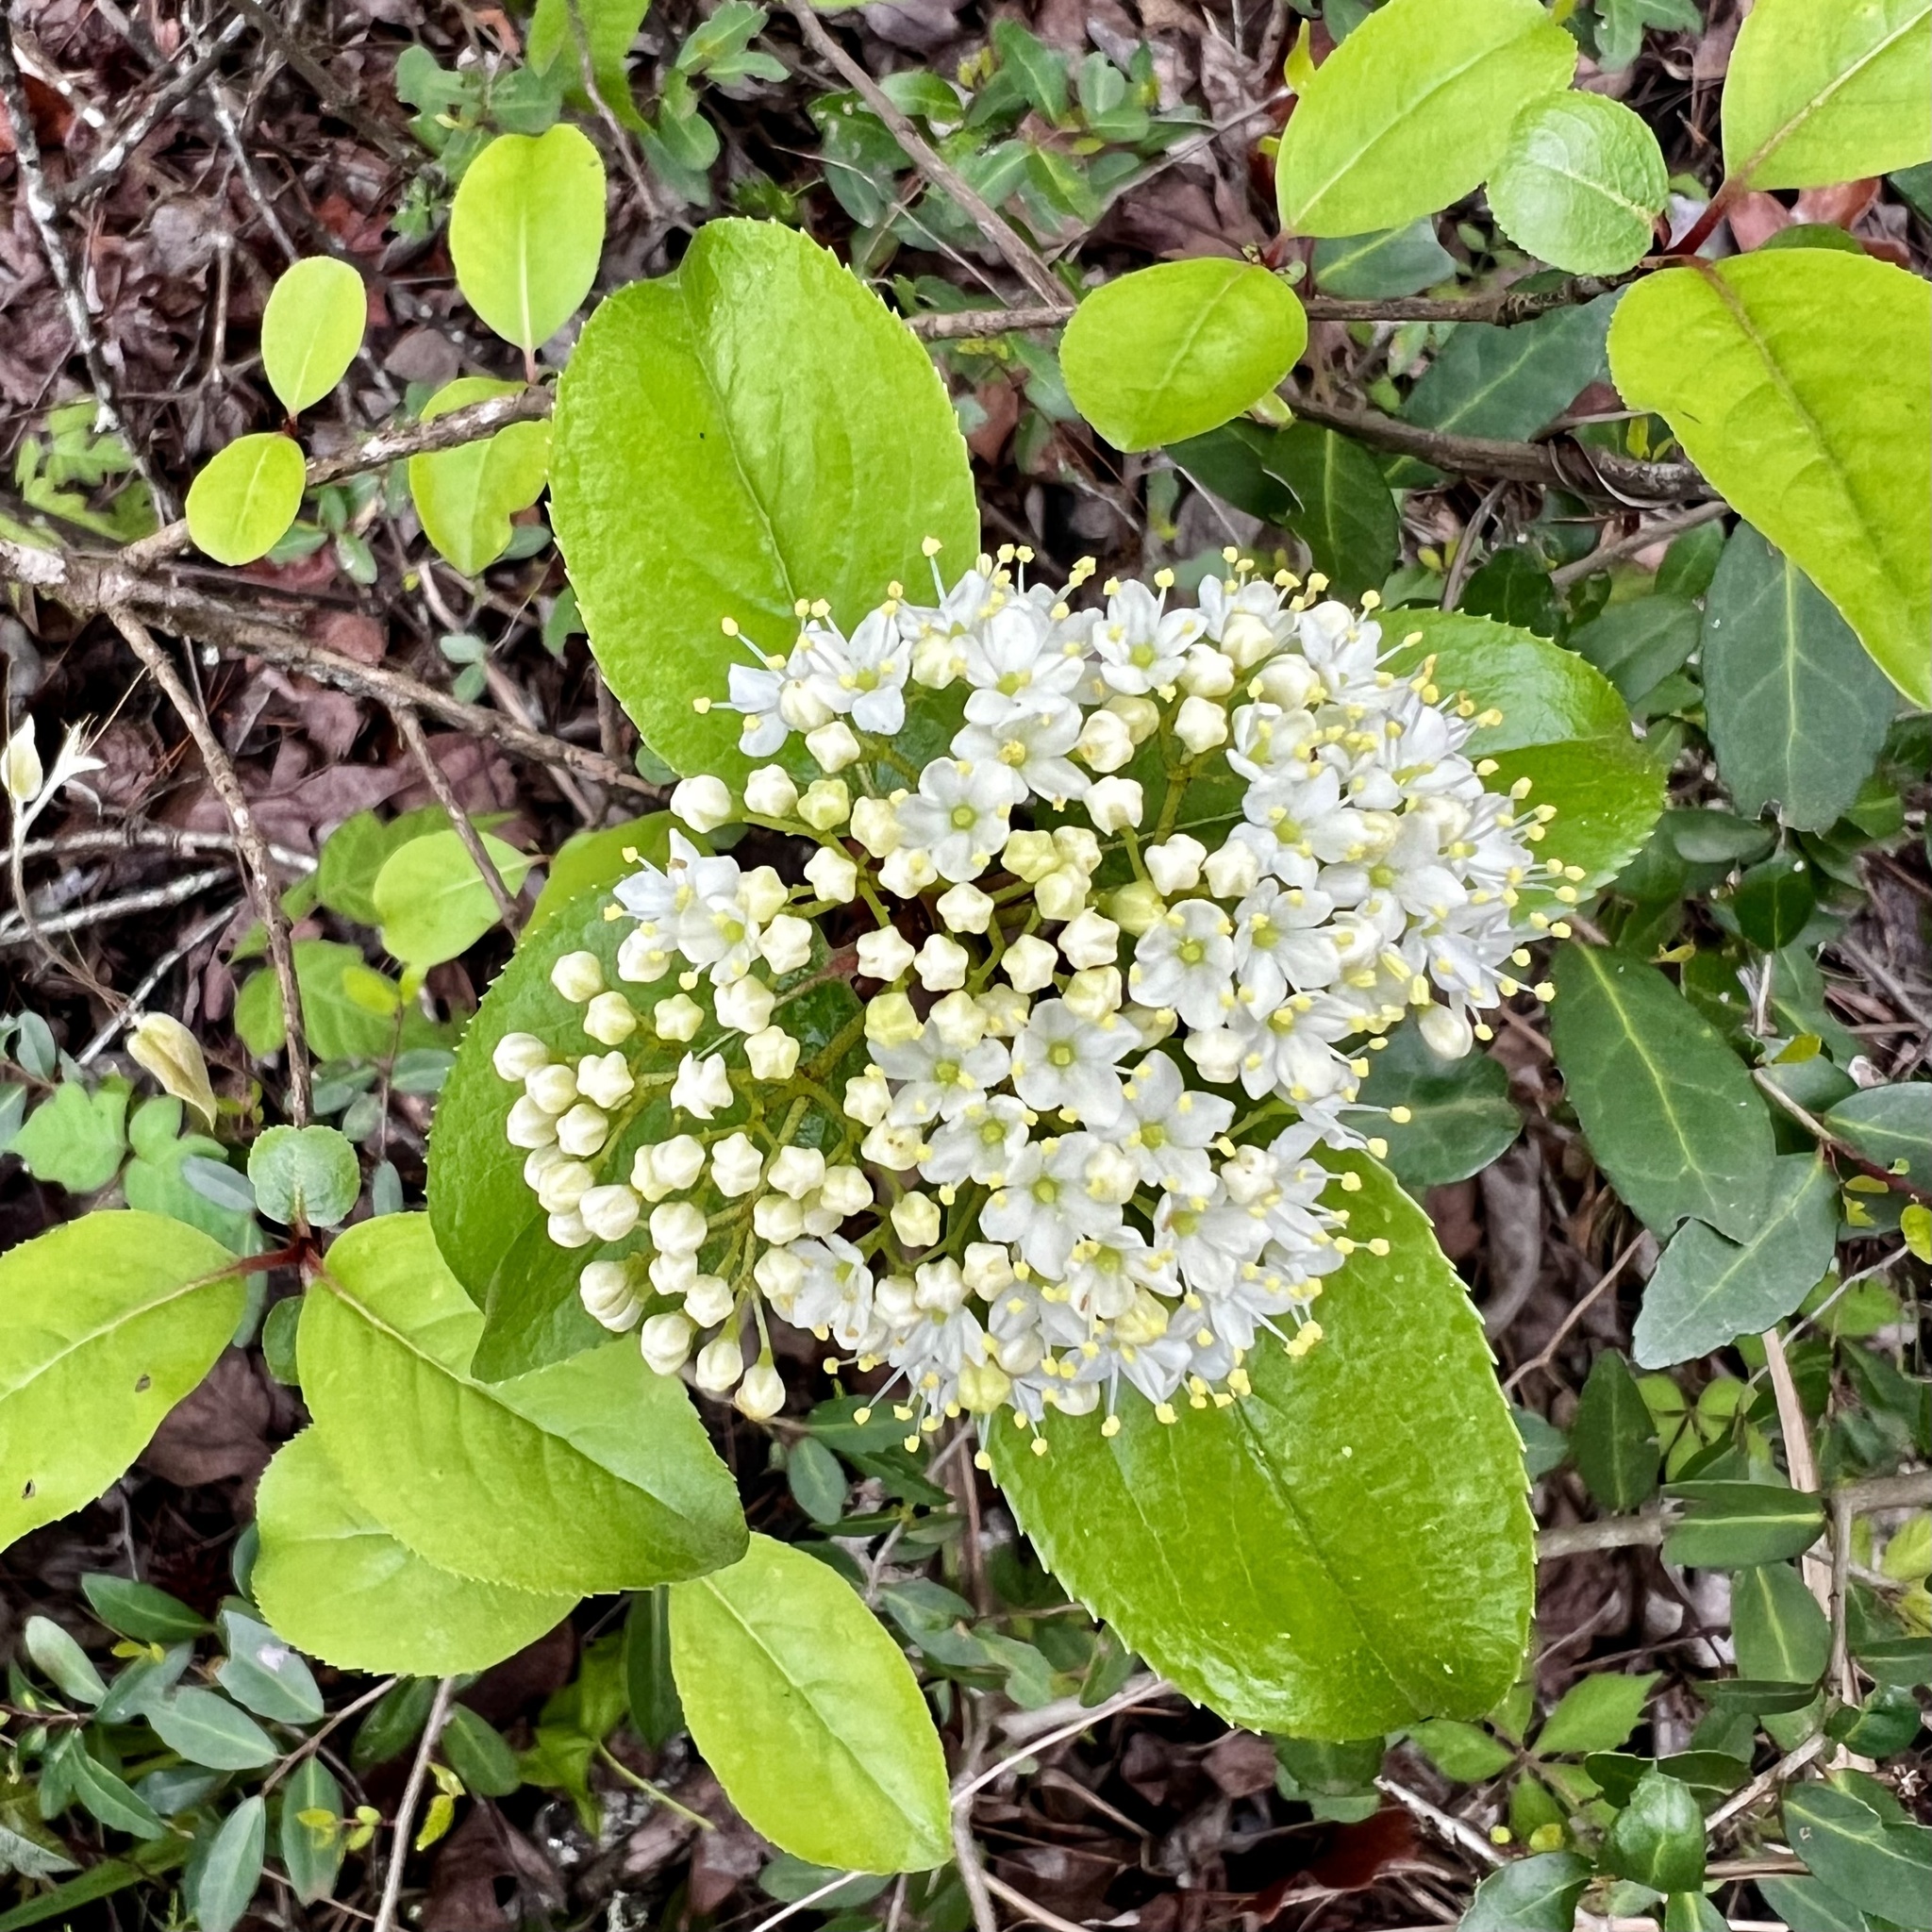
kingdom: Plantae
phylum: Tracheophyta
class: Magnoliopsida
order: Dipsacales
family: Viburnaceae
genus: Viburnum
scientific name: Viburnum rufidulum
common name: Blue haw
